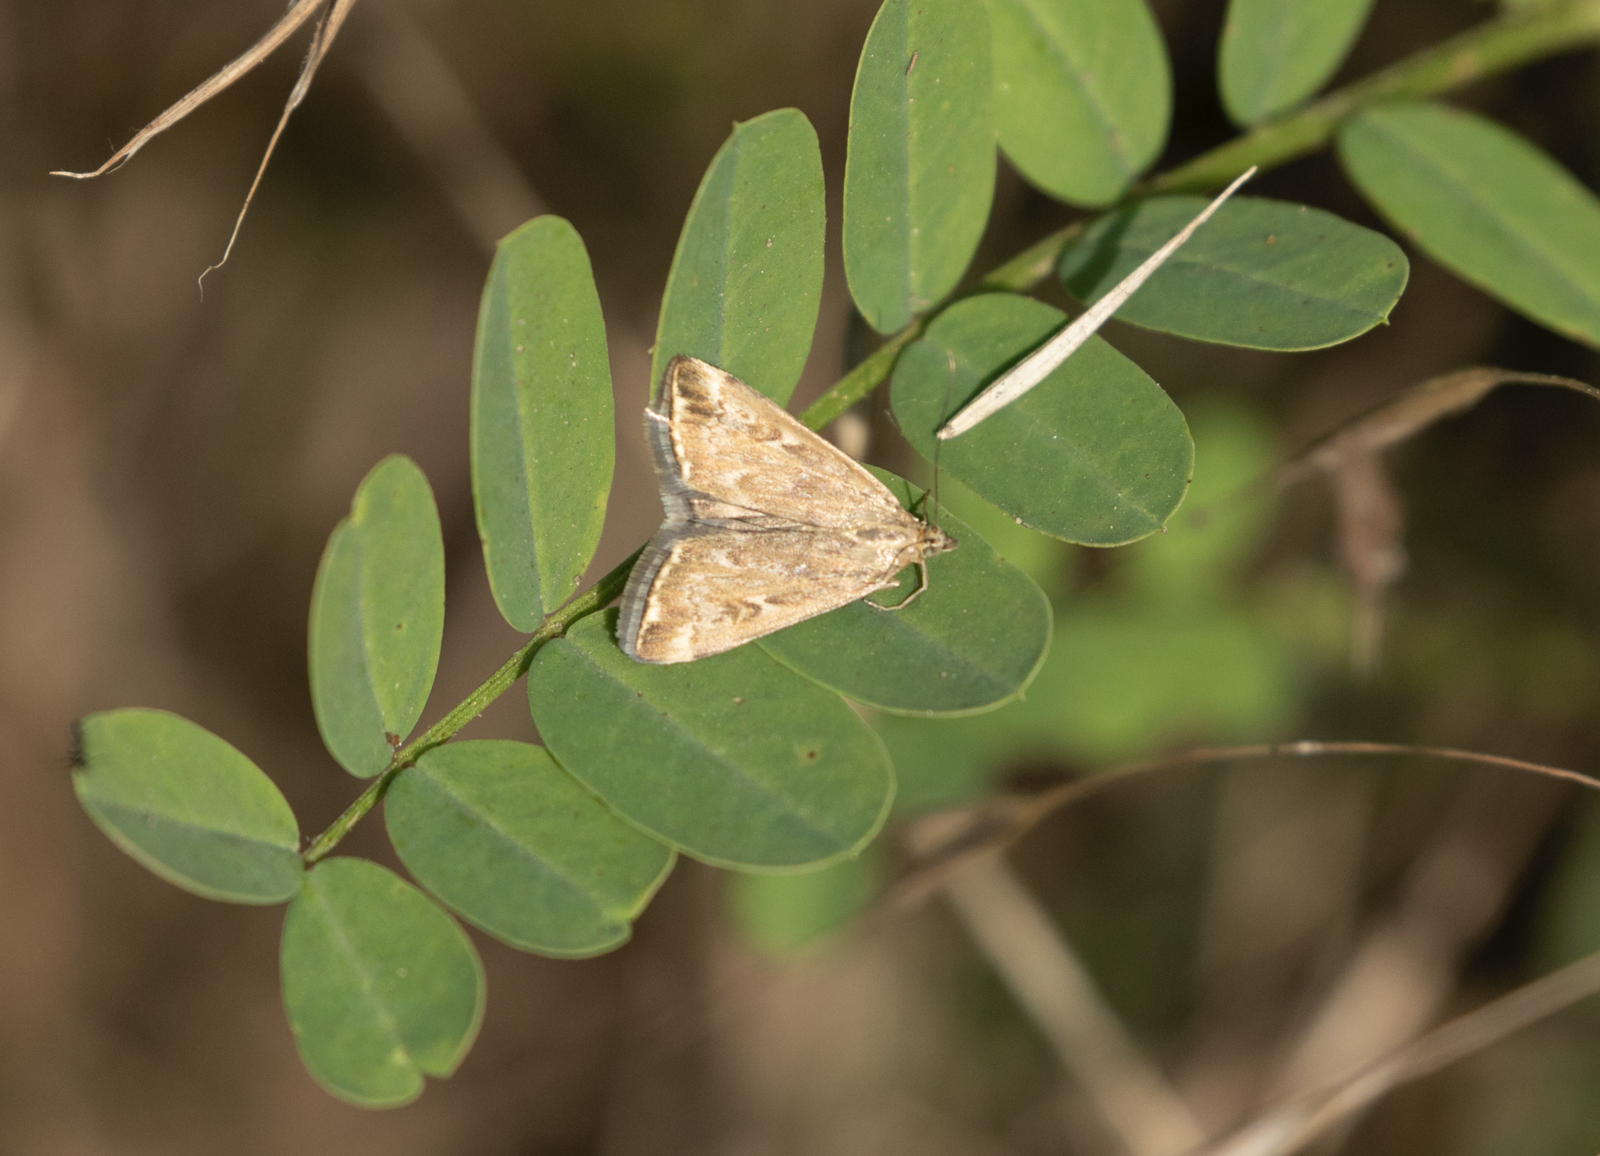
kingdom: Animalia
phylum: Arthropoda
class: Insecta
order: Lepidoptera
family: Crambidae
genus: Loxostege
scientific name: Loxostege sticticalis
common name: Crambid moth
